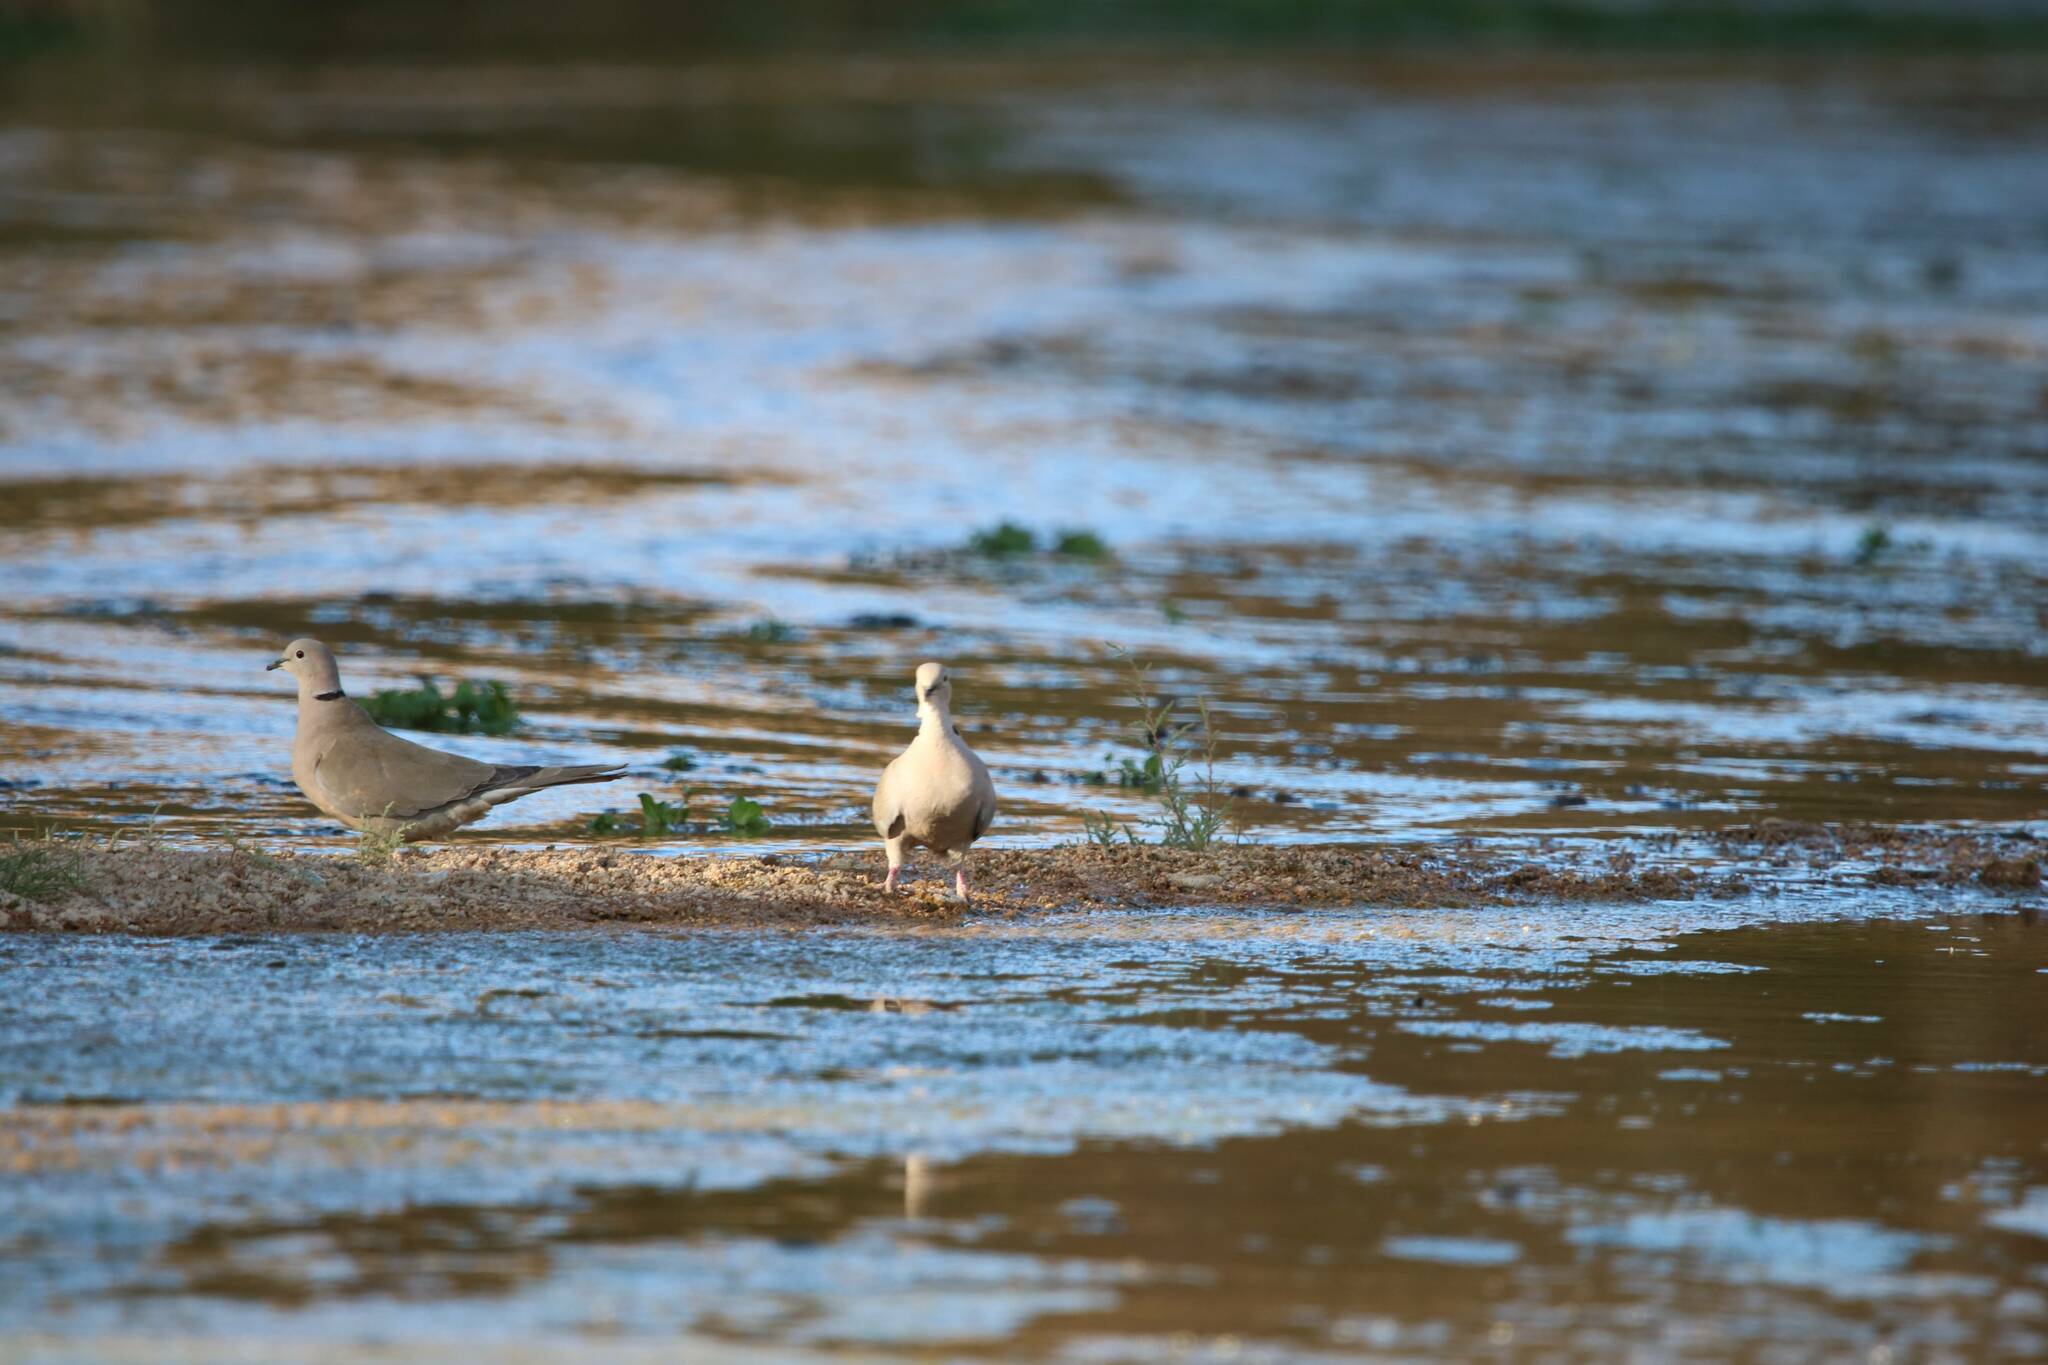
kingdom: Animalia
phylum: Chordata
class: Aves
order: Columbiformes
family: Columbidae
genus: Streptopelia
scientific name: Streptopelia decaocto
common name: Eurasian collared dove
